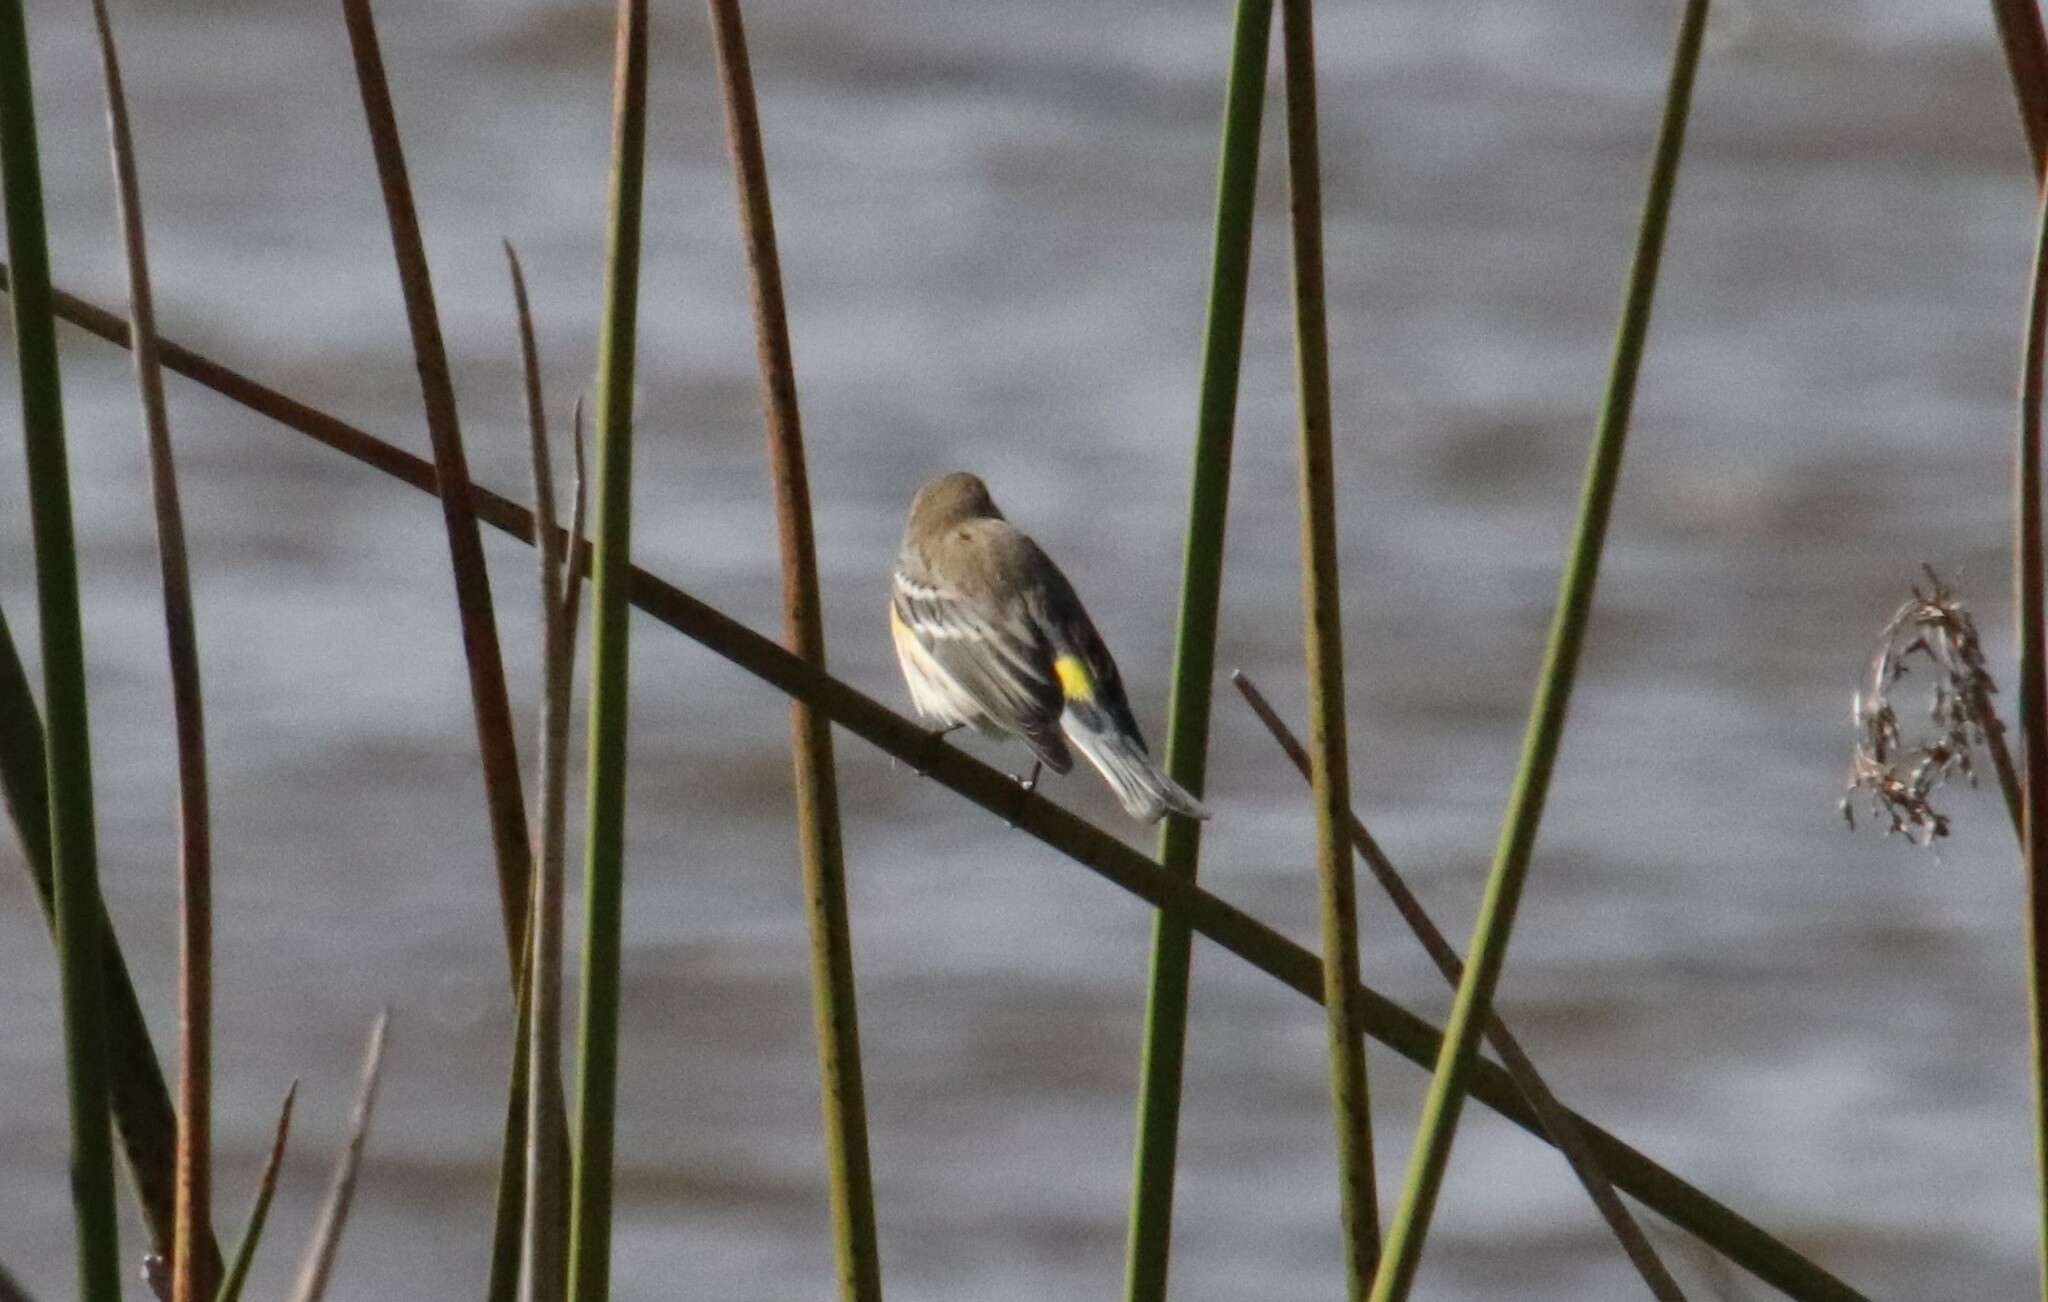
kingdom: Animalia
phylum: Chordata
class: Aves
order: Passeriformes
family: Parulidae
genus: Setophaga
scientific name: Setophaga coronata
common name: Myrtle warbler
